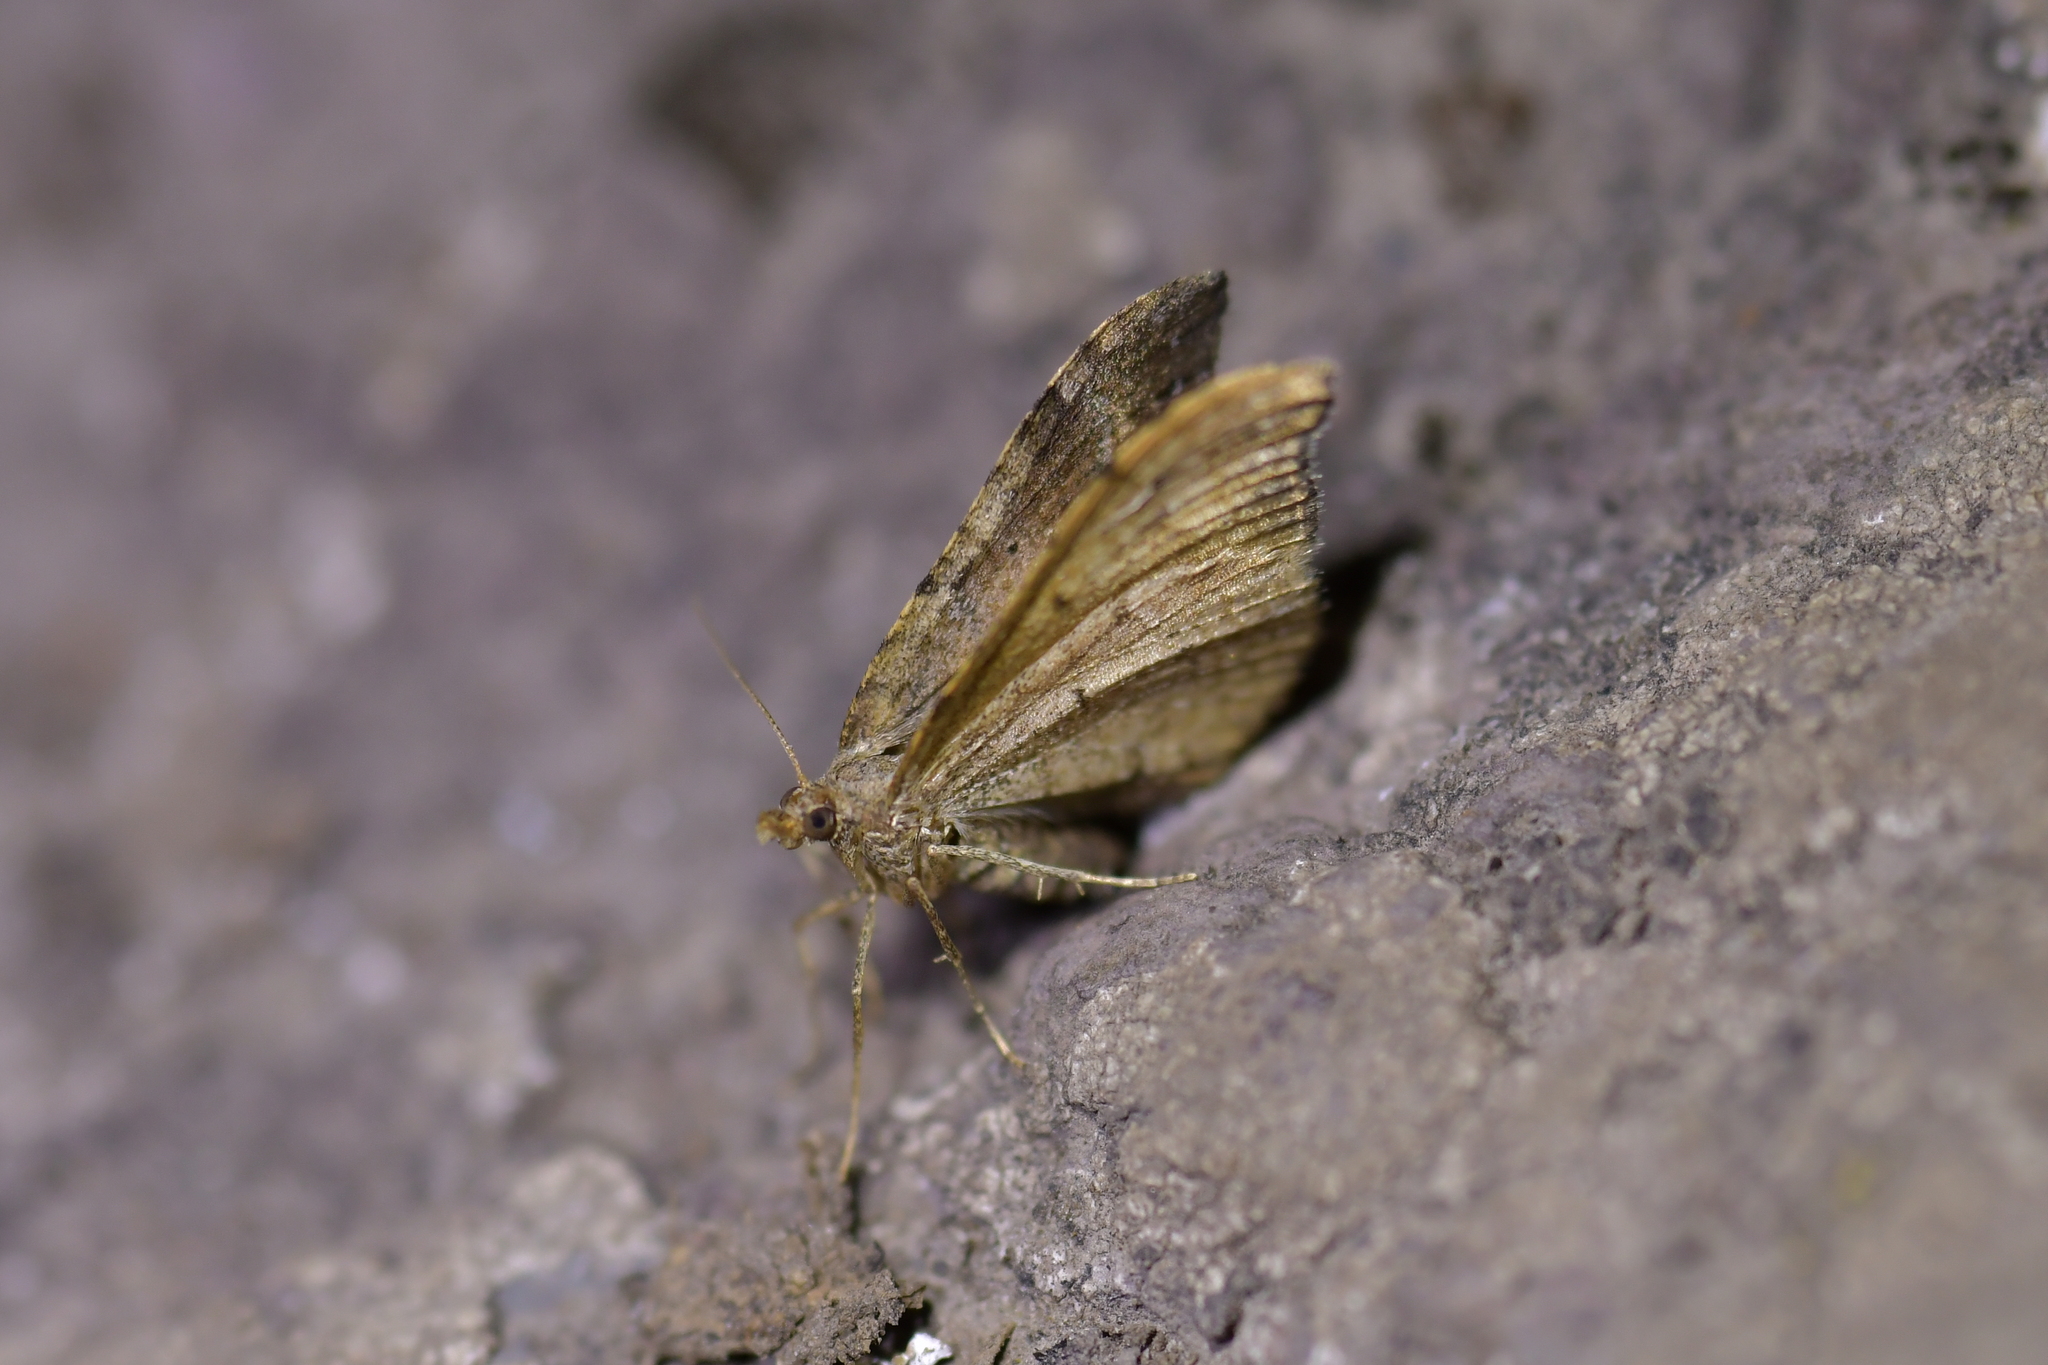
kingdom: Animalia
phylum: Arthropoda
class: Insecta
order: Lepidoptera
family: Geometridae
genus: Homodotis
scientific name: Homodotis megaspilata
